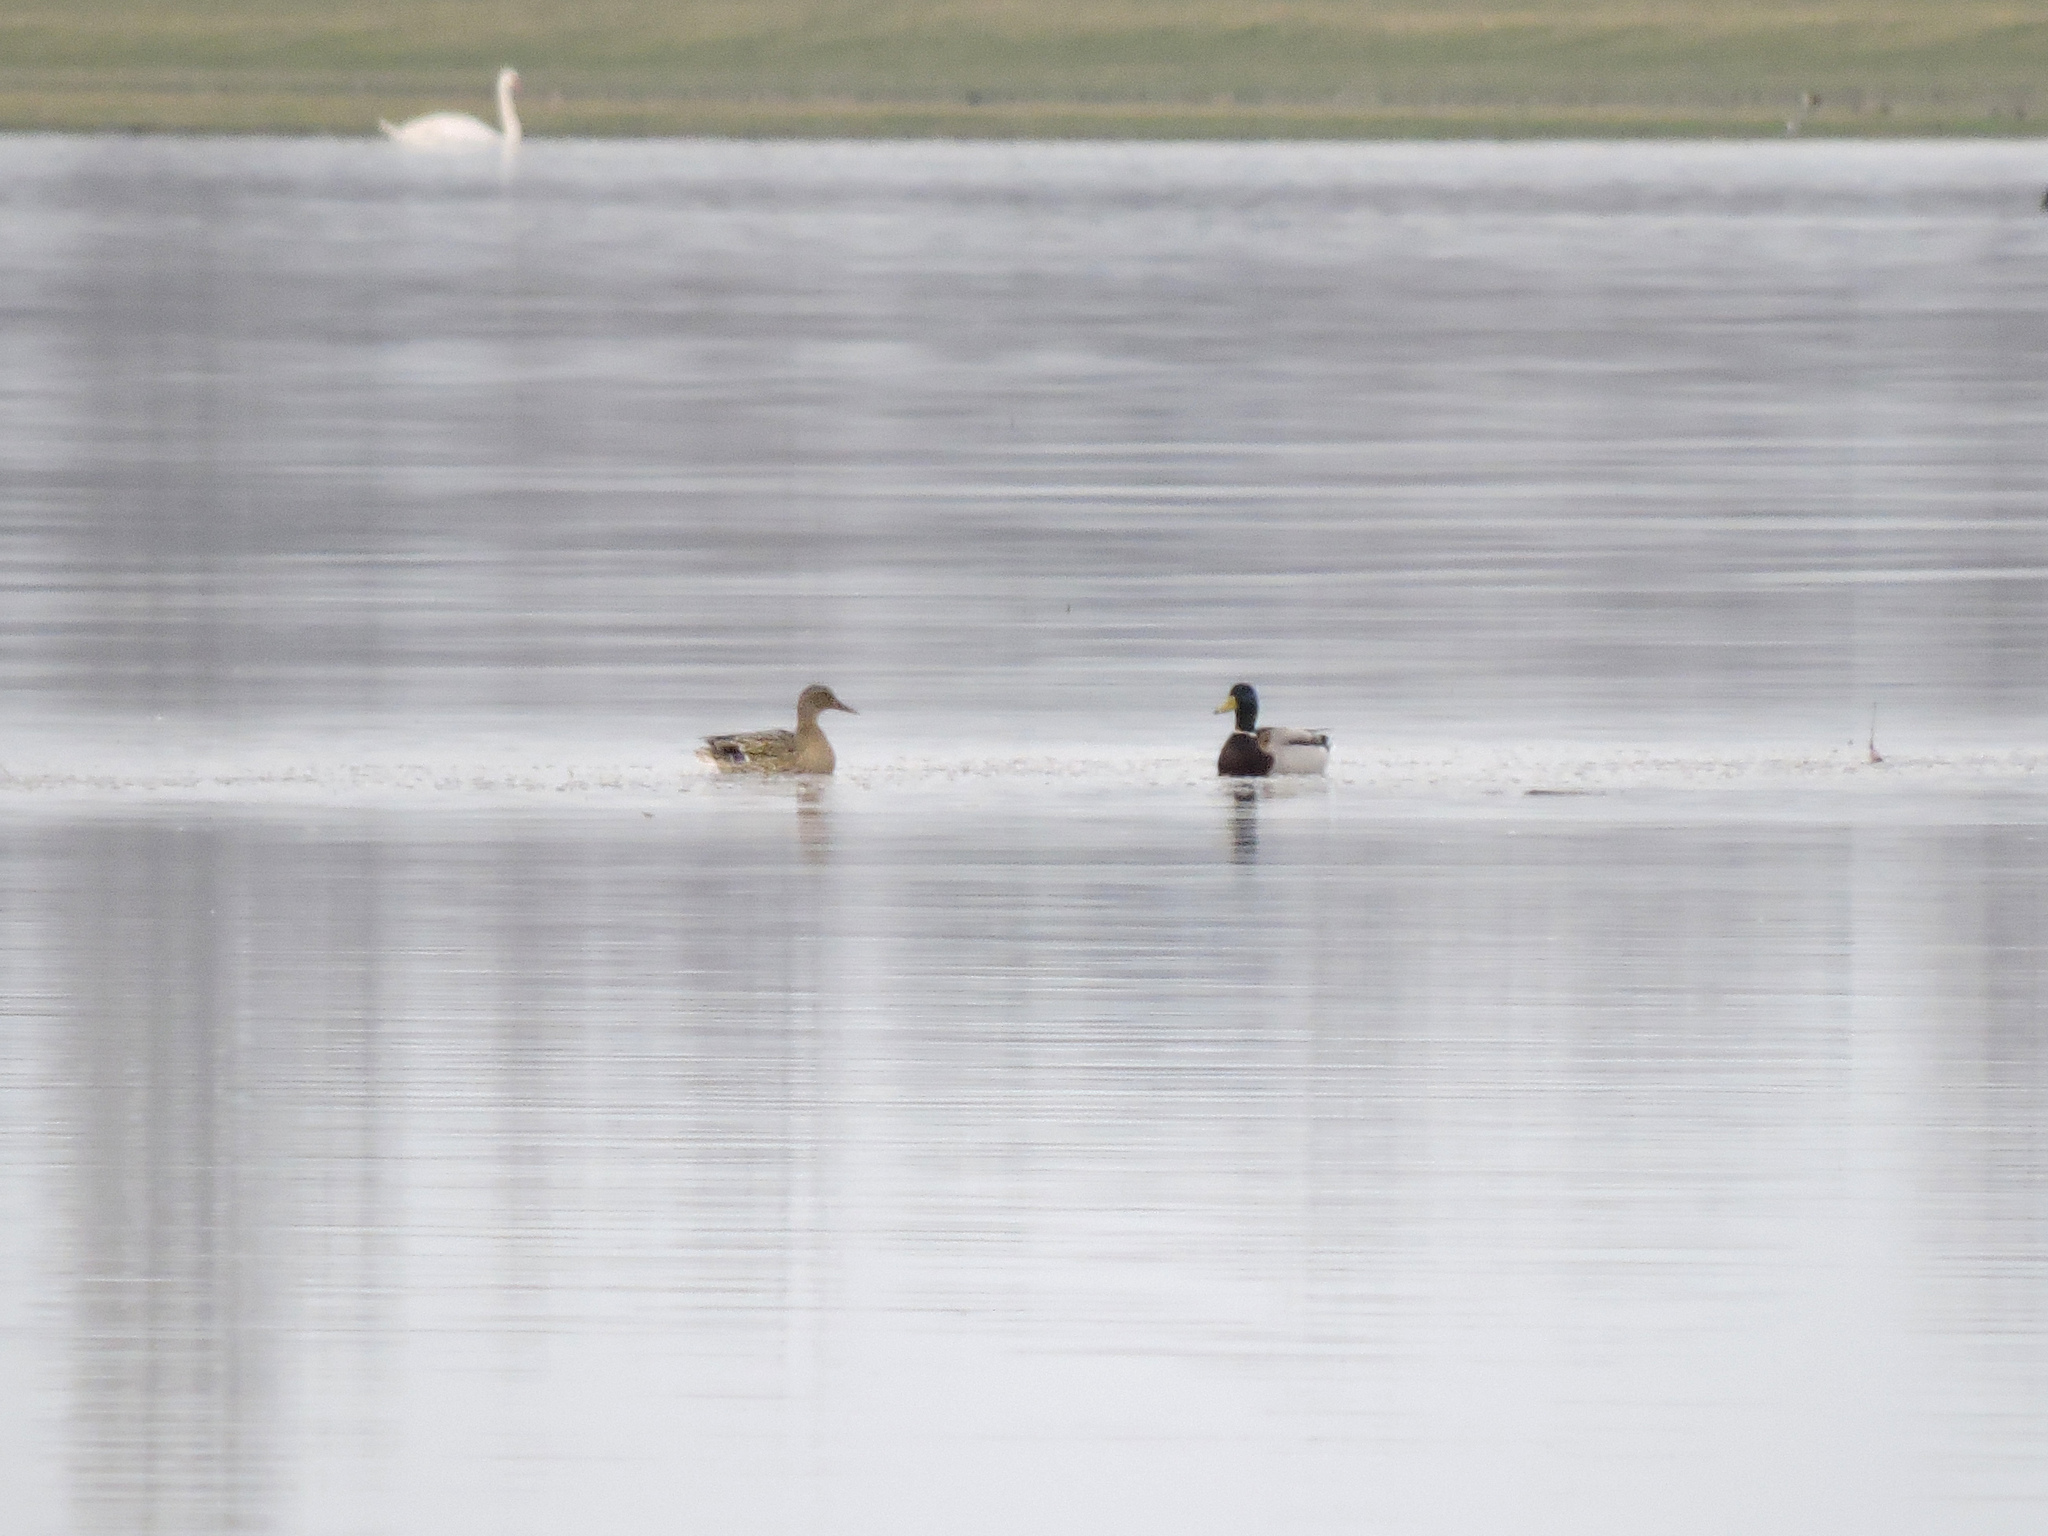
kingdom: Animalia
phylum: Chordata
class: Aves
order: Anseriformes
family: Anatidae
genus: Anas
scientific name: Anas platyrhynchos
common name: Mallard
